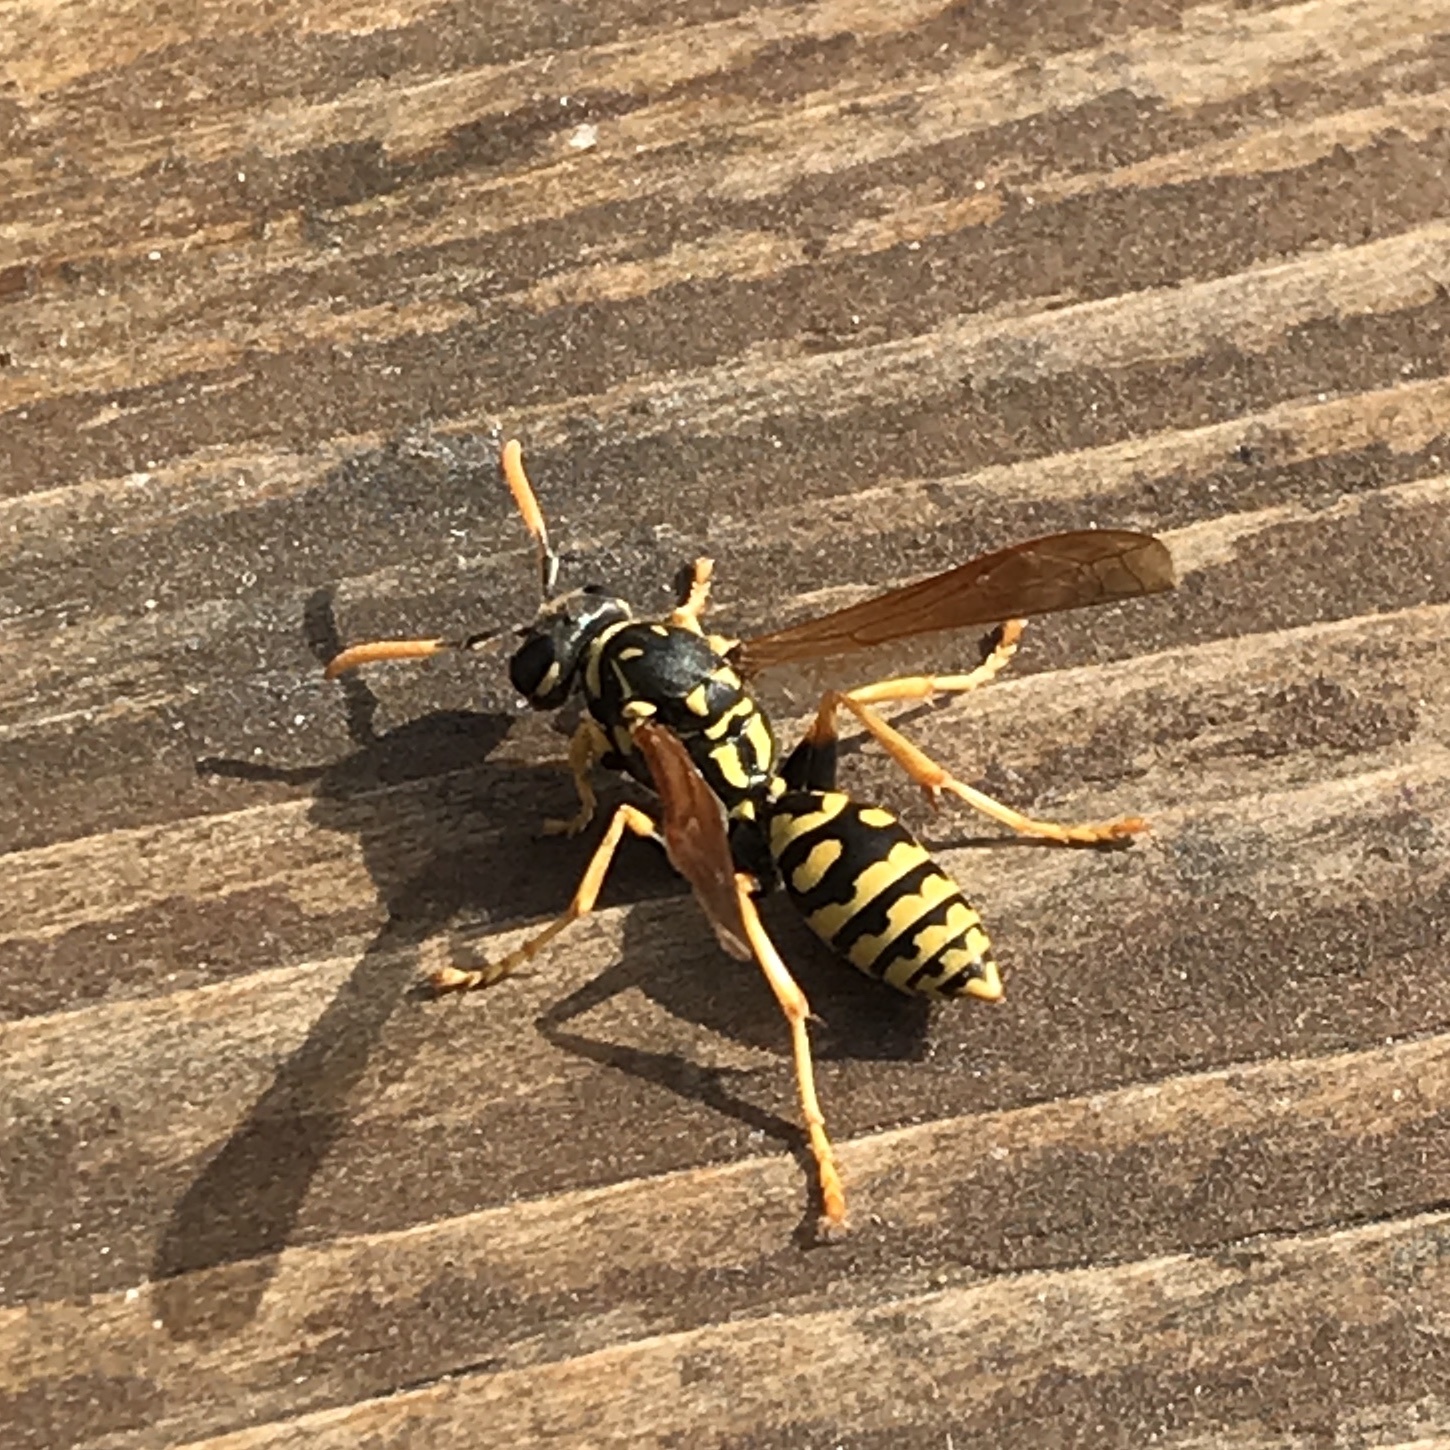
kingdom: Animalia
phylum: Arthropoda
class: Insecta
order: Hymenoptera
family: Eumenidae
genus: Polistes
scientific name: Polistes dominula
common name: Paper wasp
